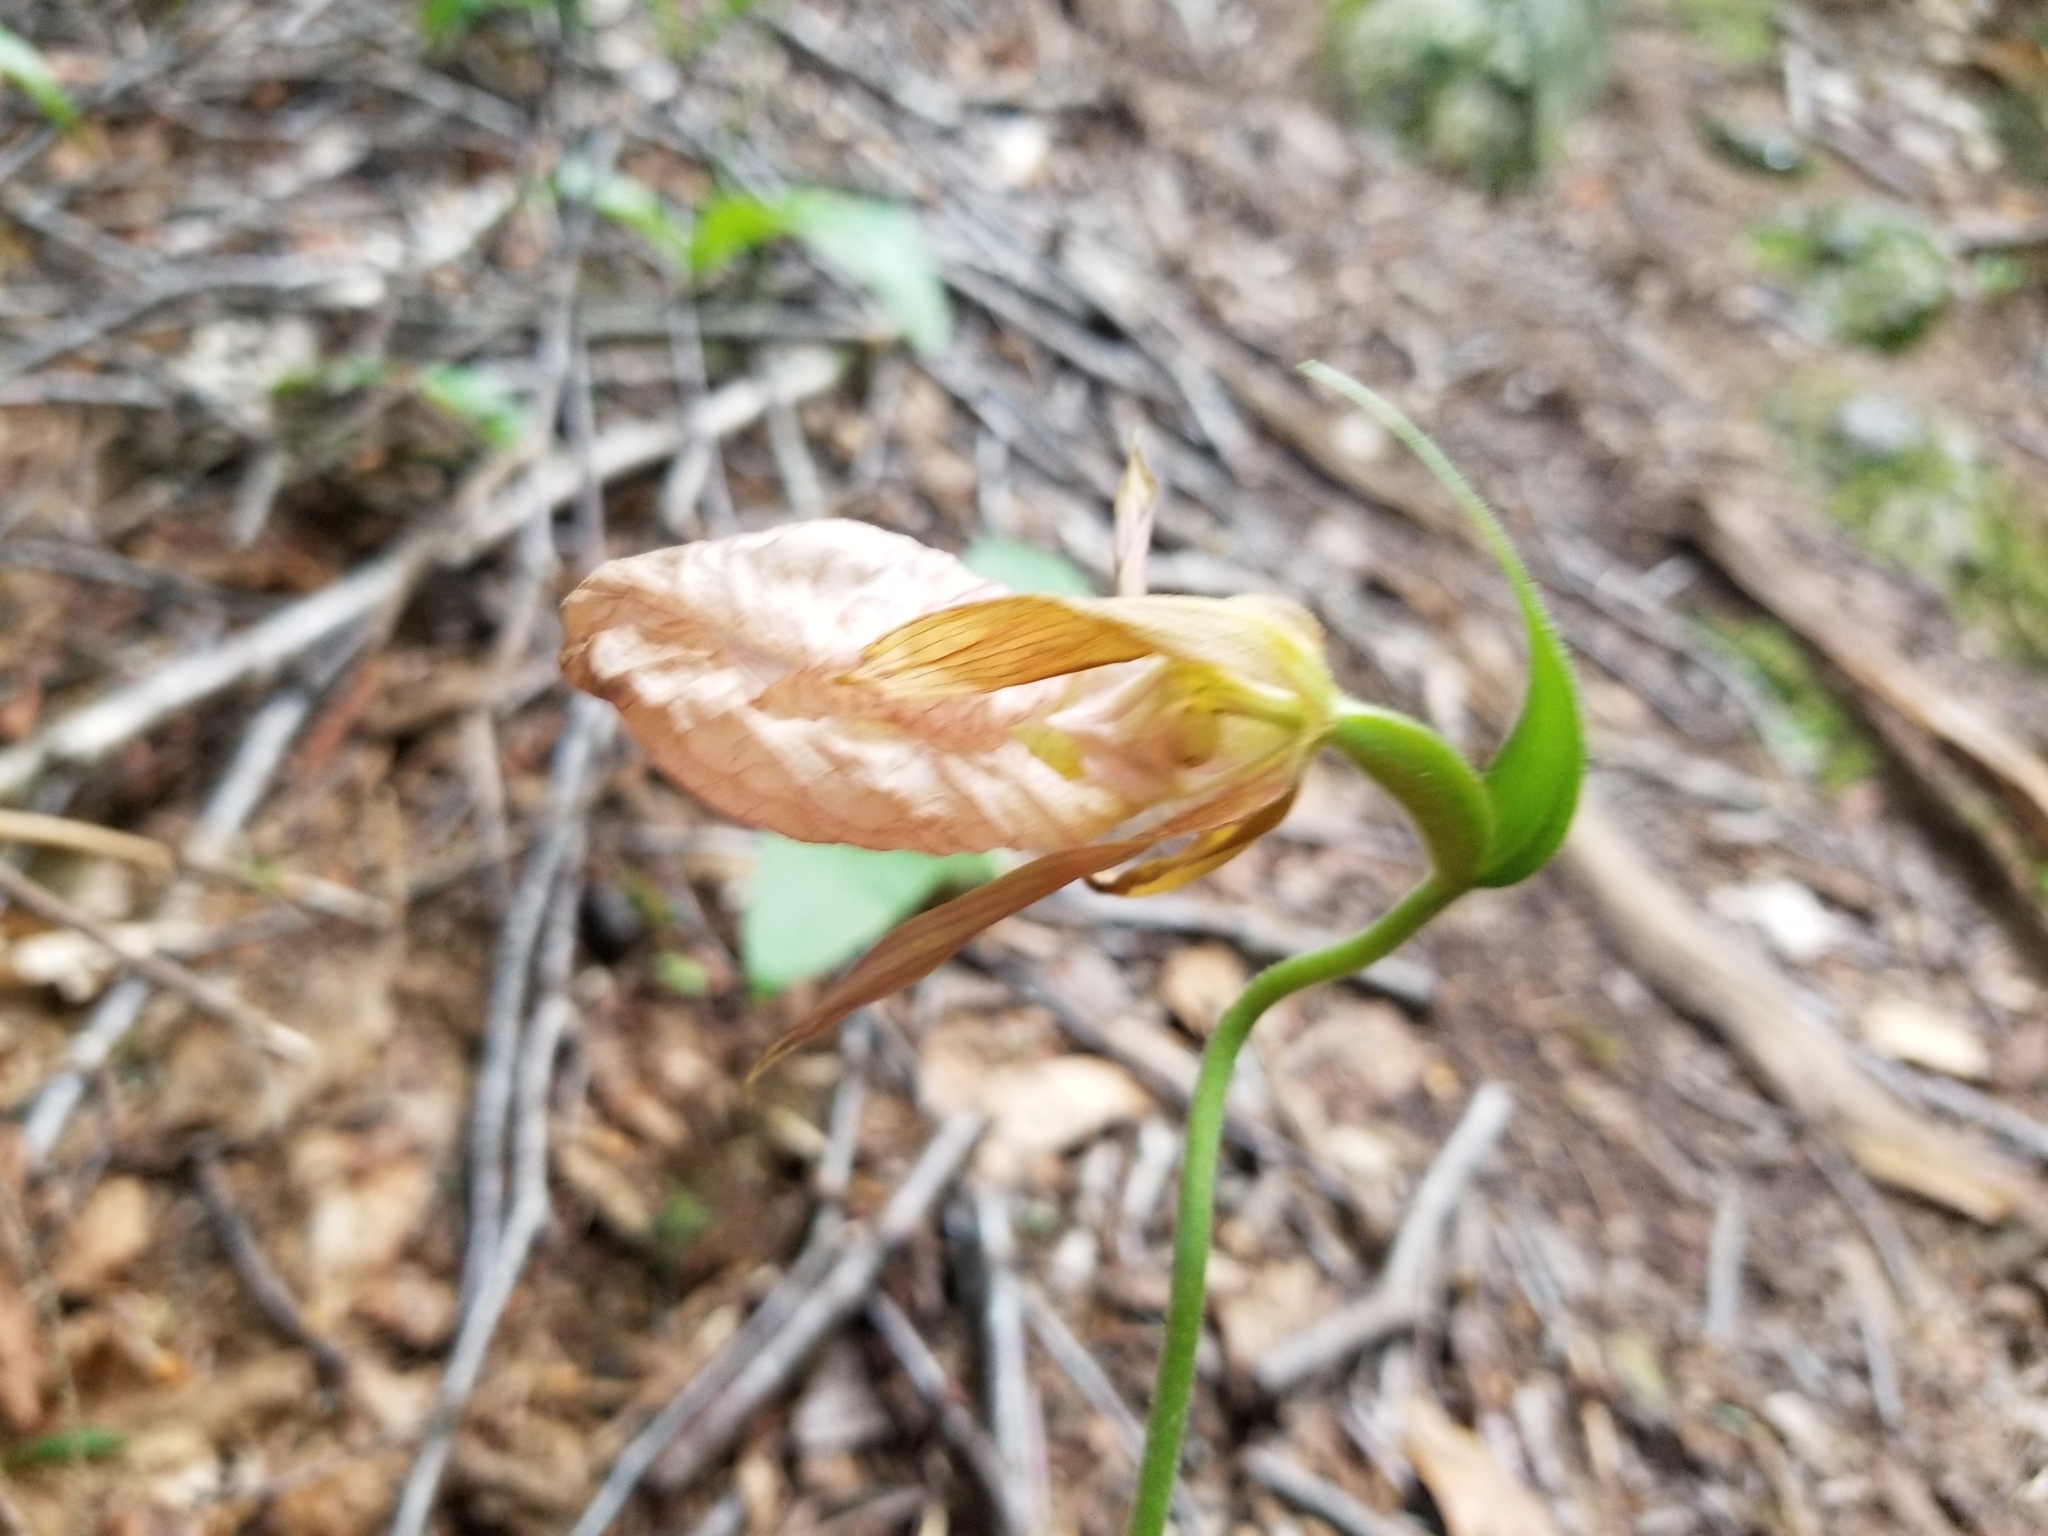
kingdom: Plantae
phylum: Tracheophyta
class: Liliopsida
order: Asparagales
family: Orchidaceae
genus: Cypripedium
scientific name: Cypripedium acaule
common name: Pink lady's-slipper
